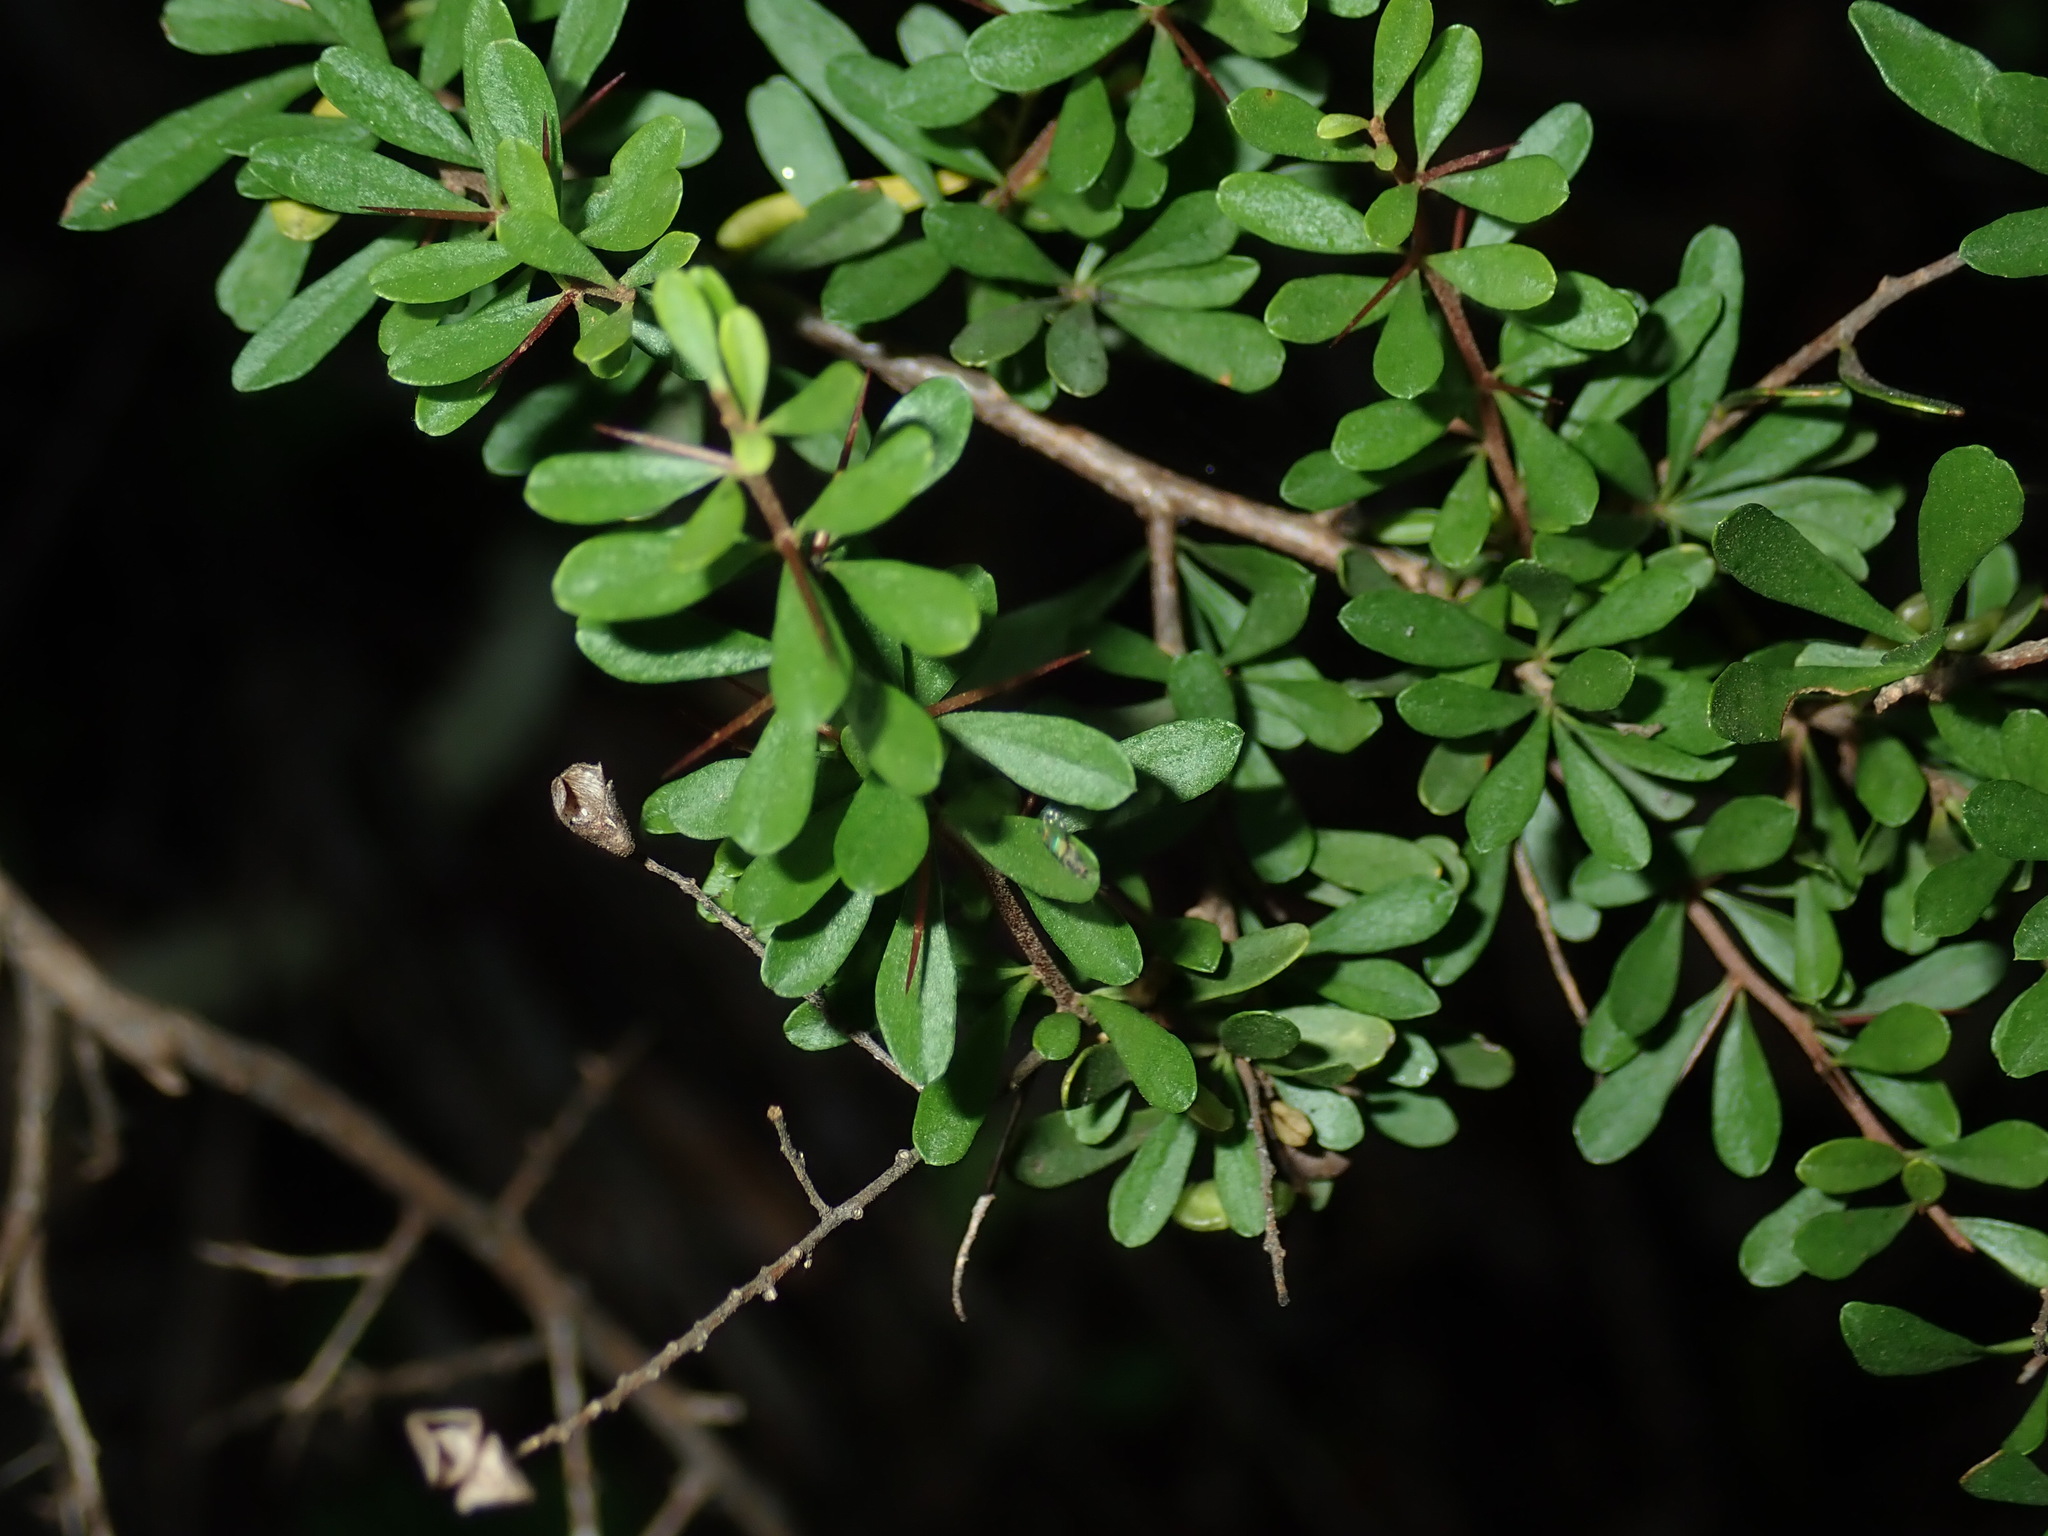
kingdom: Plantae
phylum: Tracheophyta
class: Magnoliopsida
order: Apiales
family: Pittosporaceae
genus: Bursaria
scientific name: Bursaria spinosa
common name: Australian blackthorn
